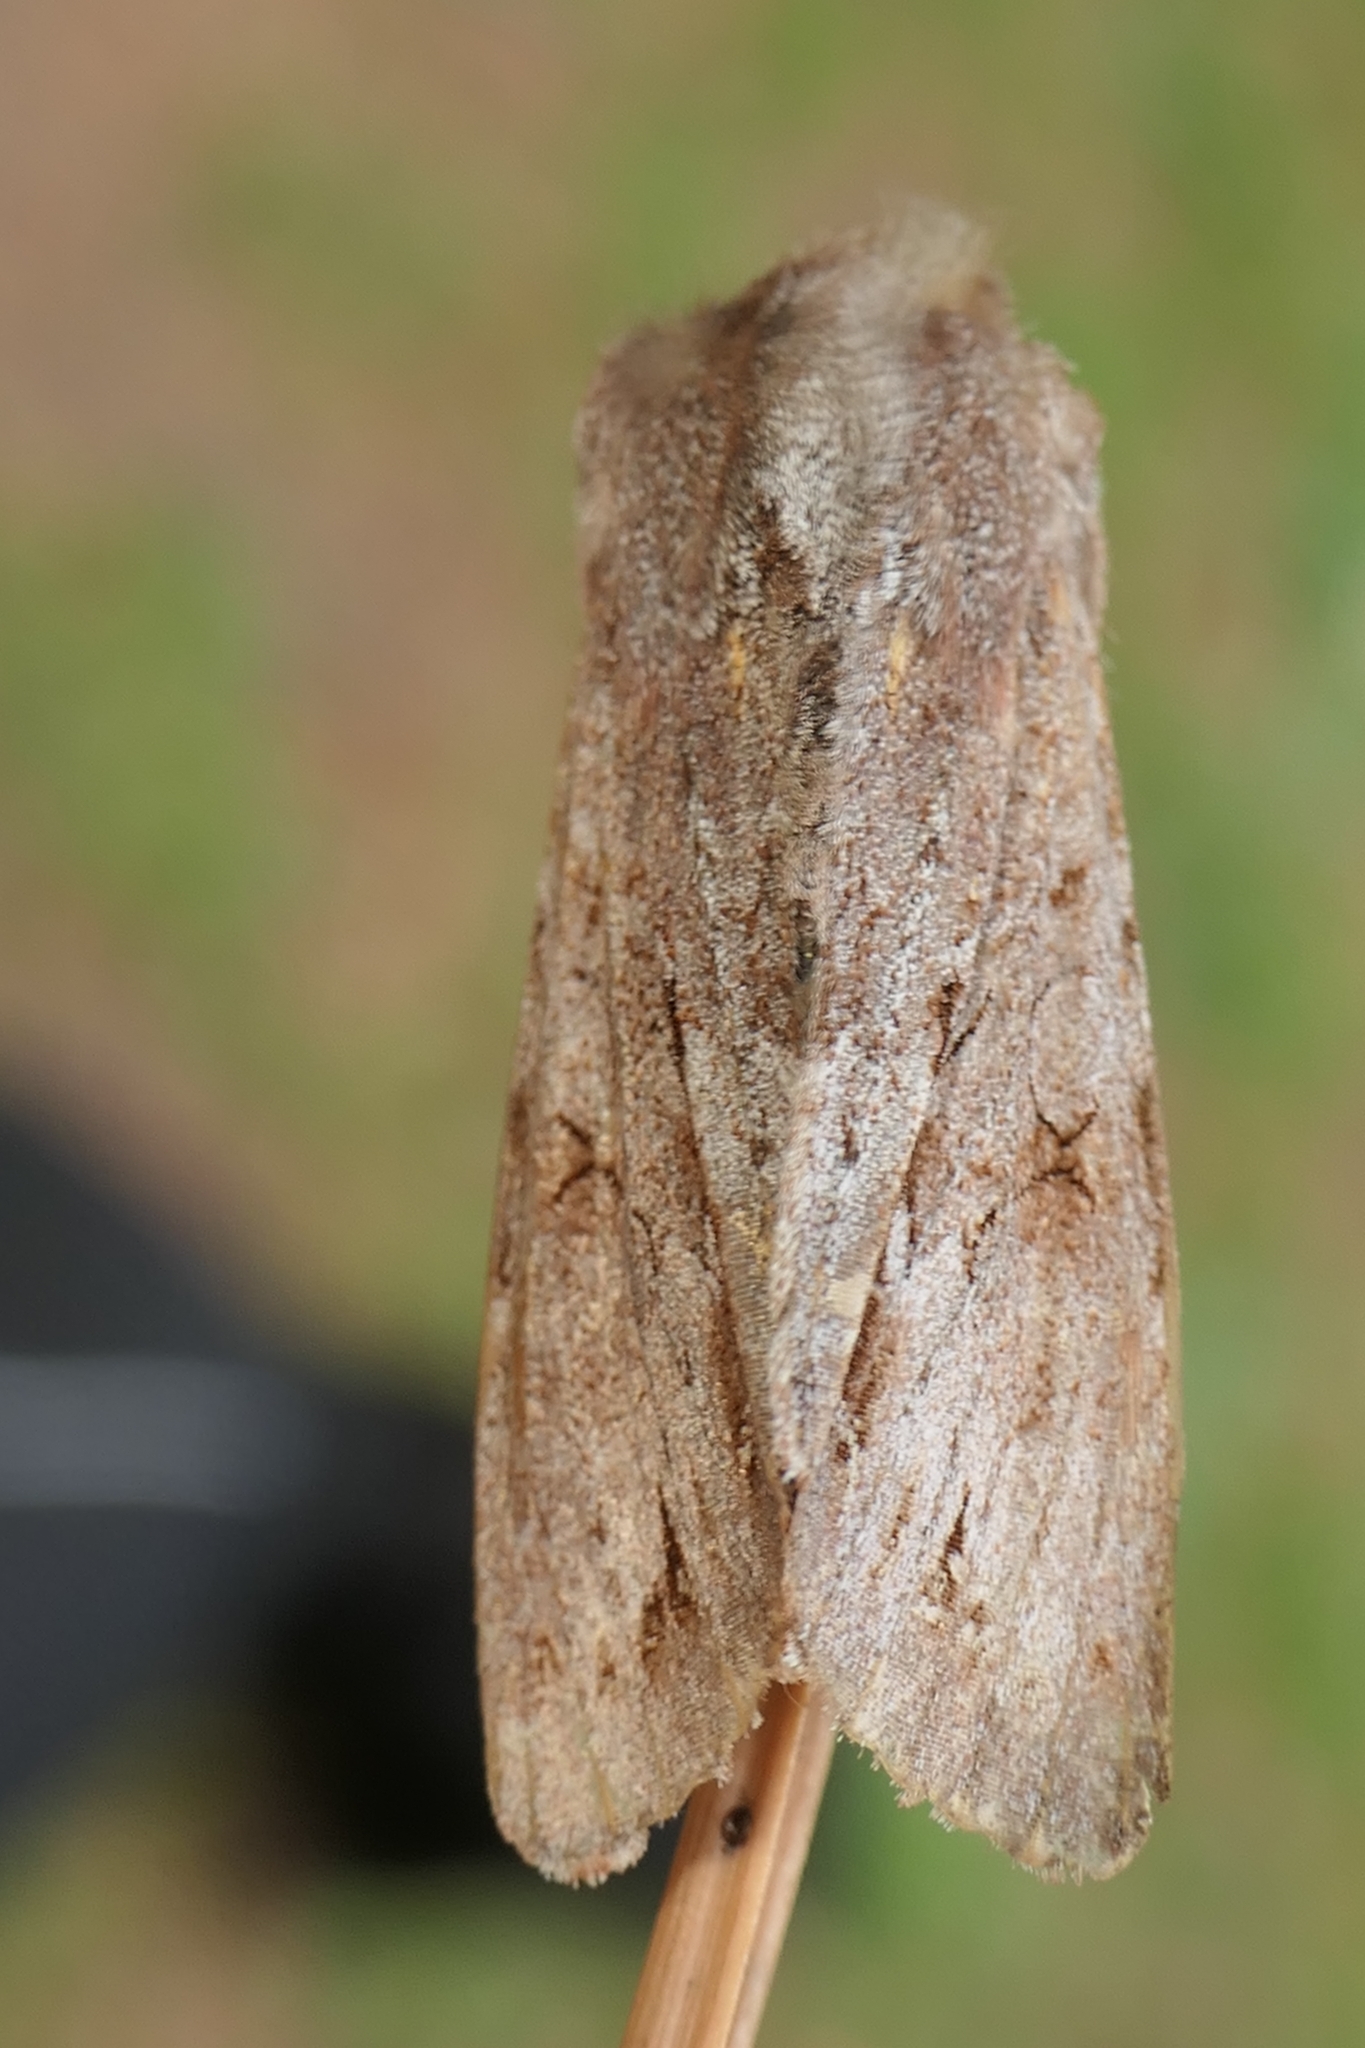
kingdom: Animalia
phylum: Arthropoda
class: Insecta
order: Lepidoptera
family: Noctuidae
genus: Ichneutica
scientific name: Ichneutica
